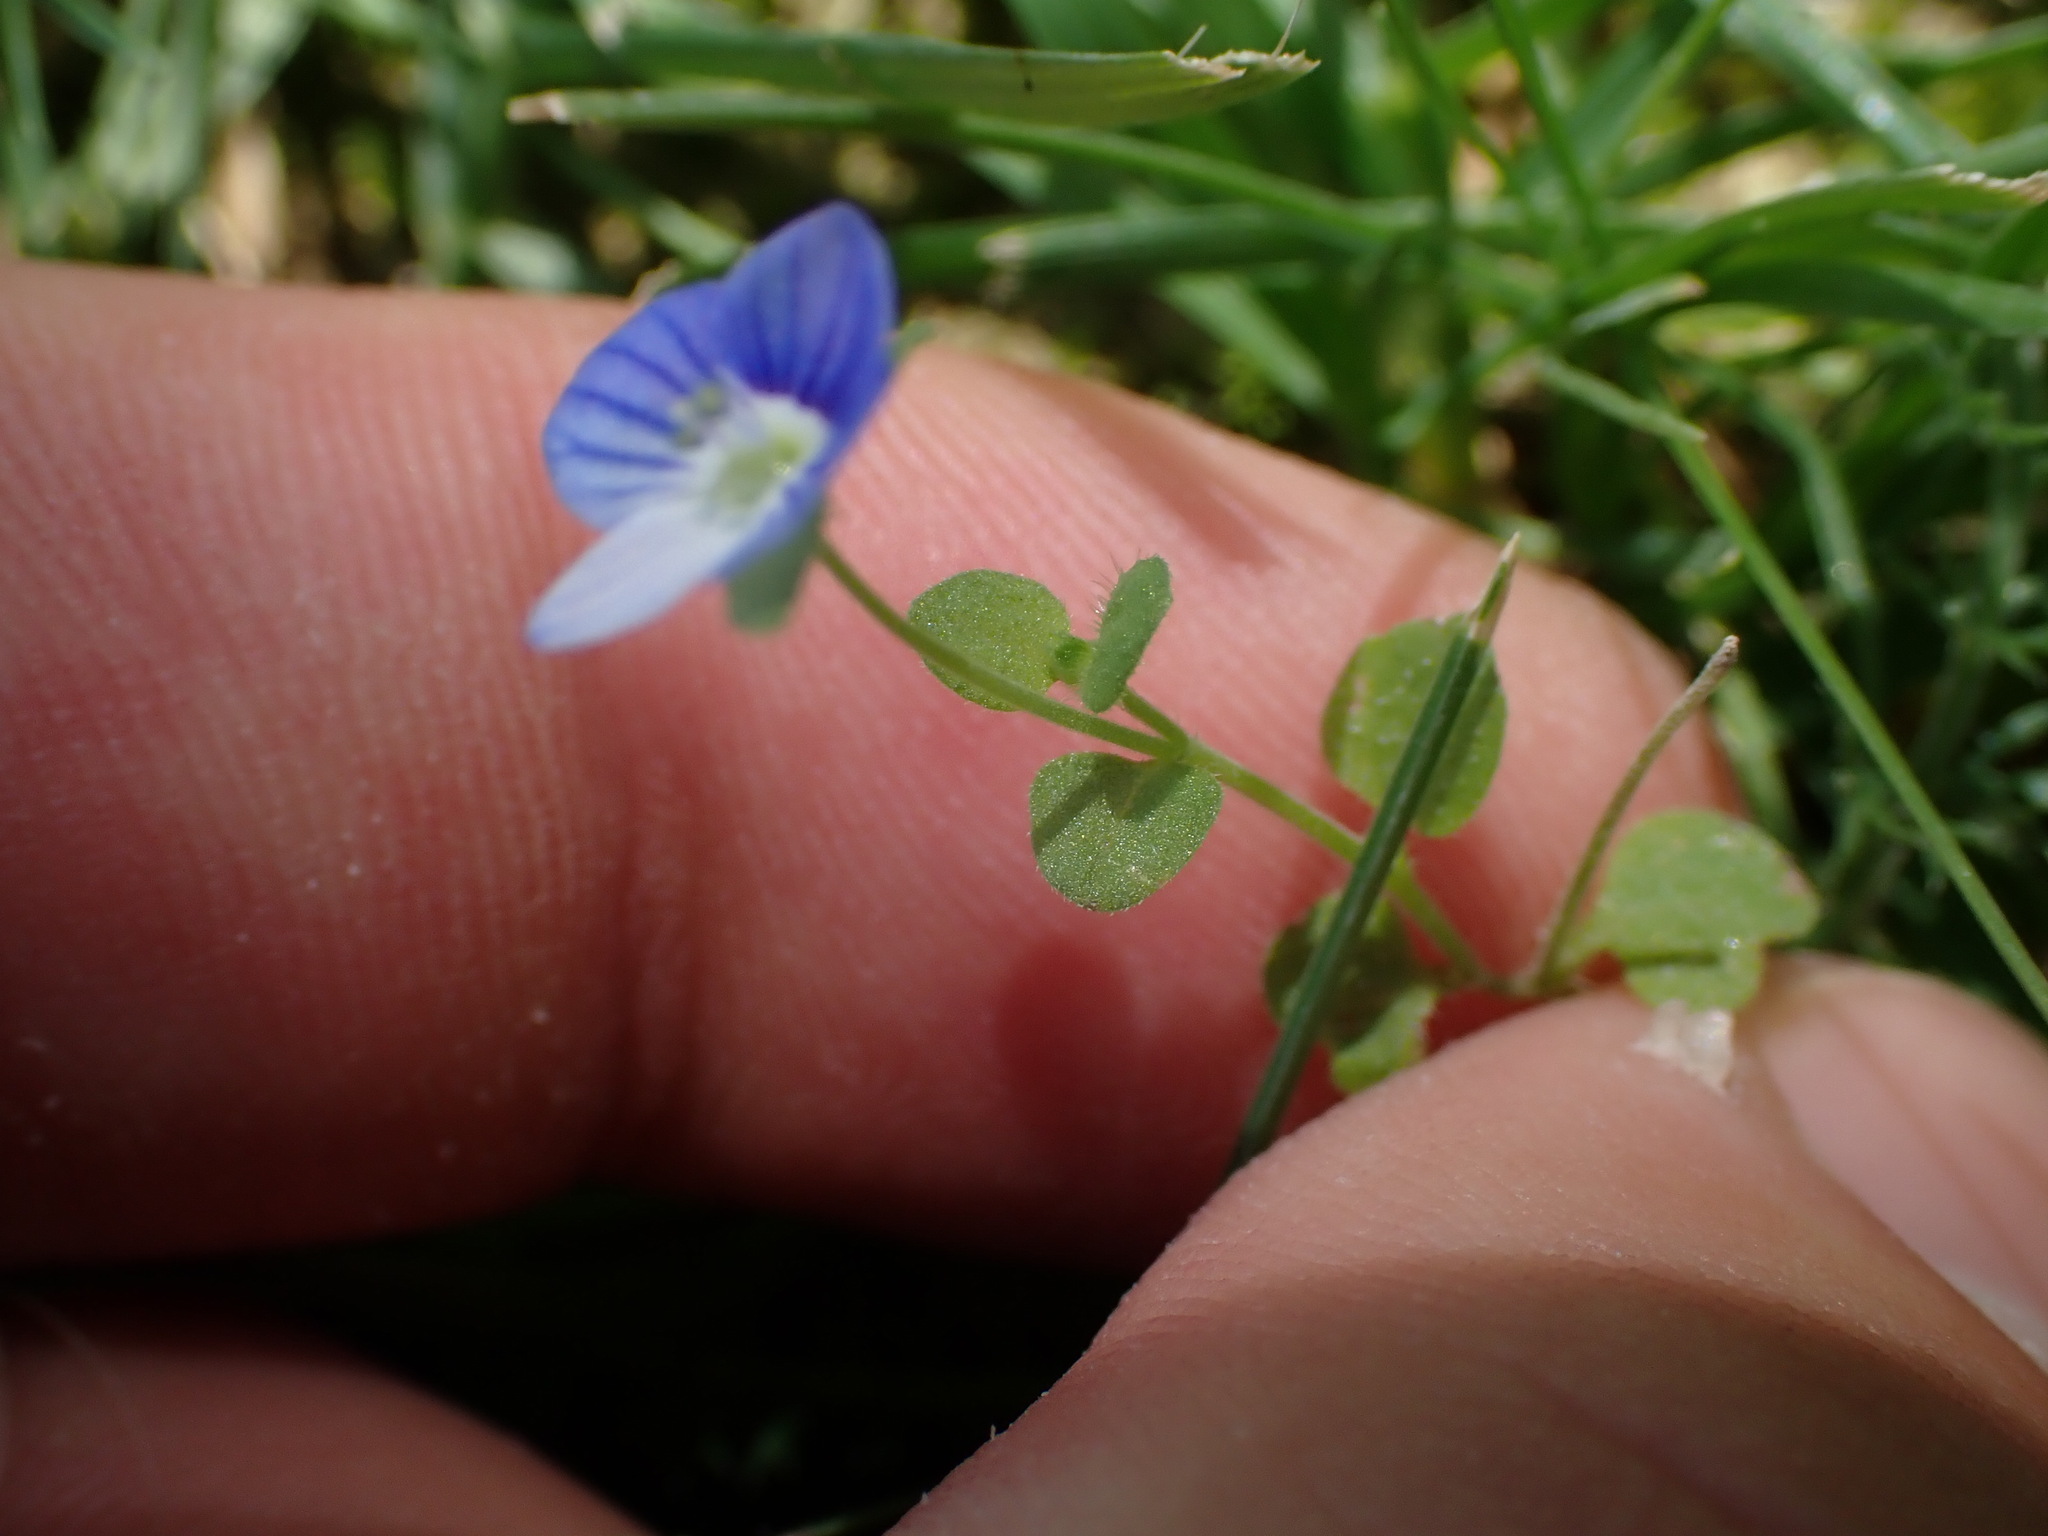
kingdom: Plantae
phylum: Tracheophyta
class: Magnoliopsida
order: Lamiales
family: Plantaginaceae
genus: Veronica
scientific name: Veronica persica
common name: Common field-speedwell
